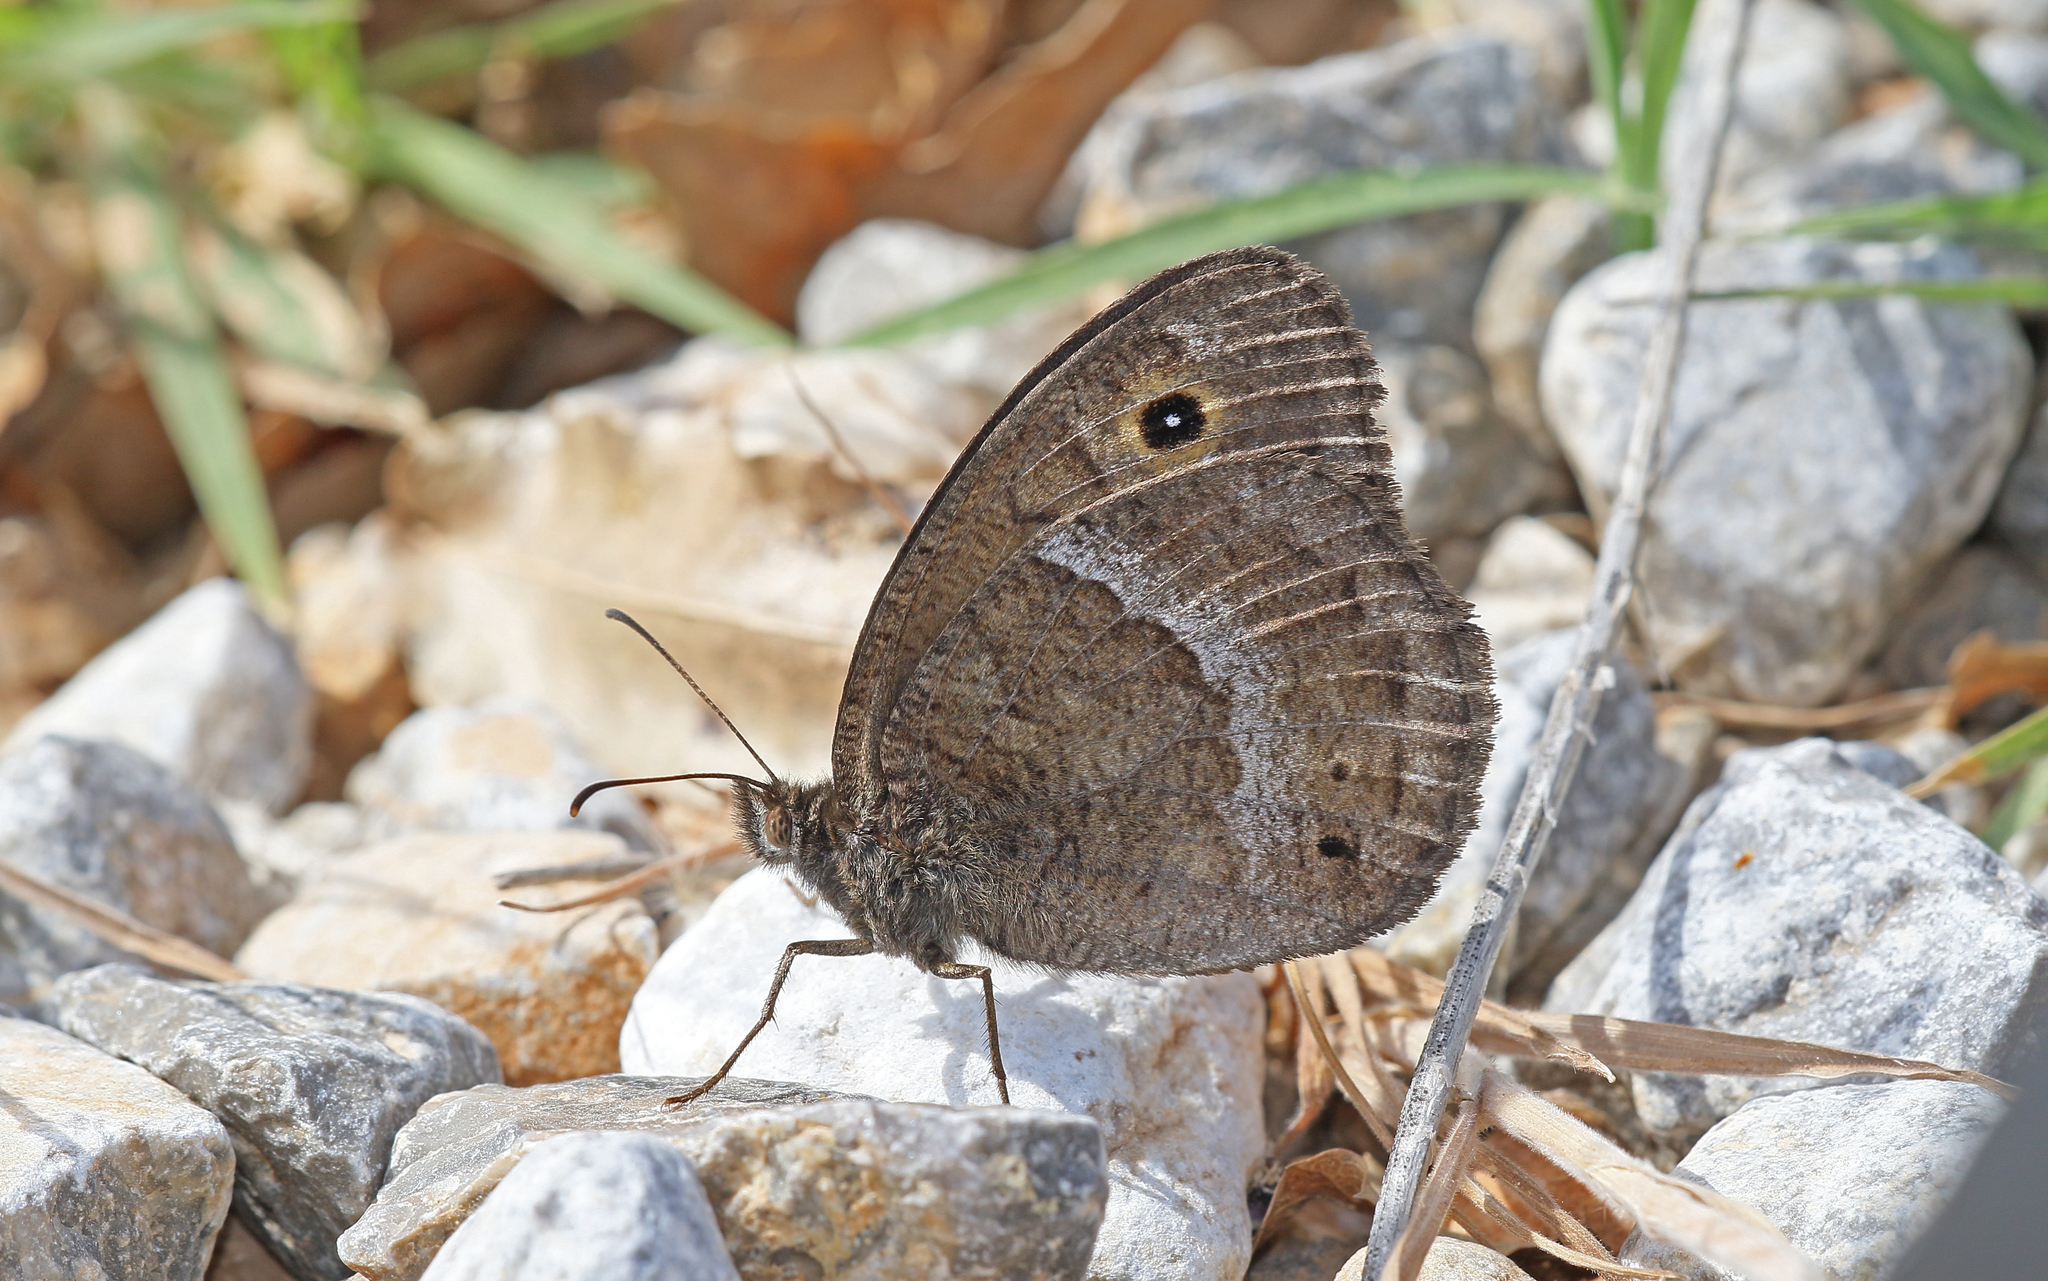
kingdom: Animalia
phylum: Arthropoda
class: Insecta
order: Lepidoptera
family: Nymphalidae
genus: Satyrus
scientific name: Satyrus ferula
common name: Great sooty satyr
